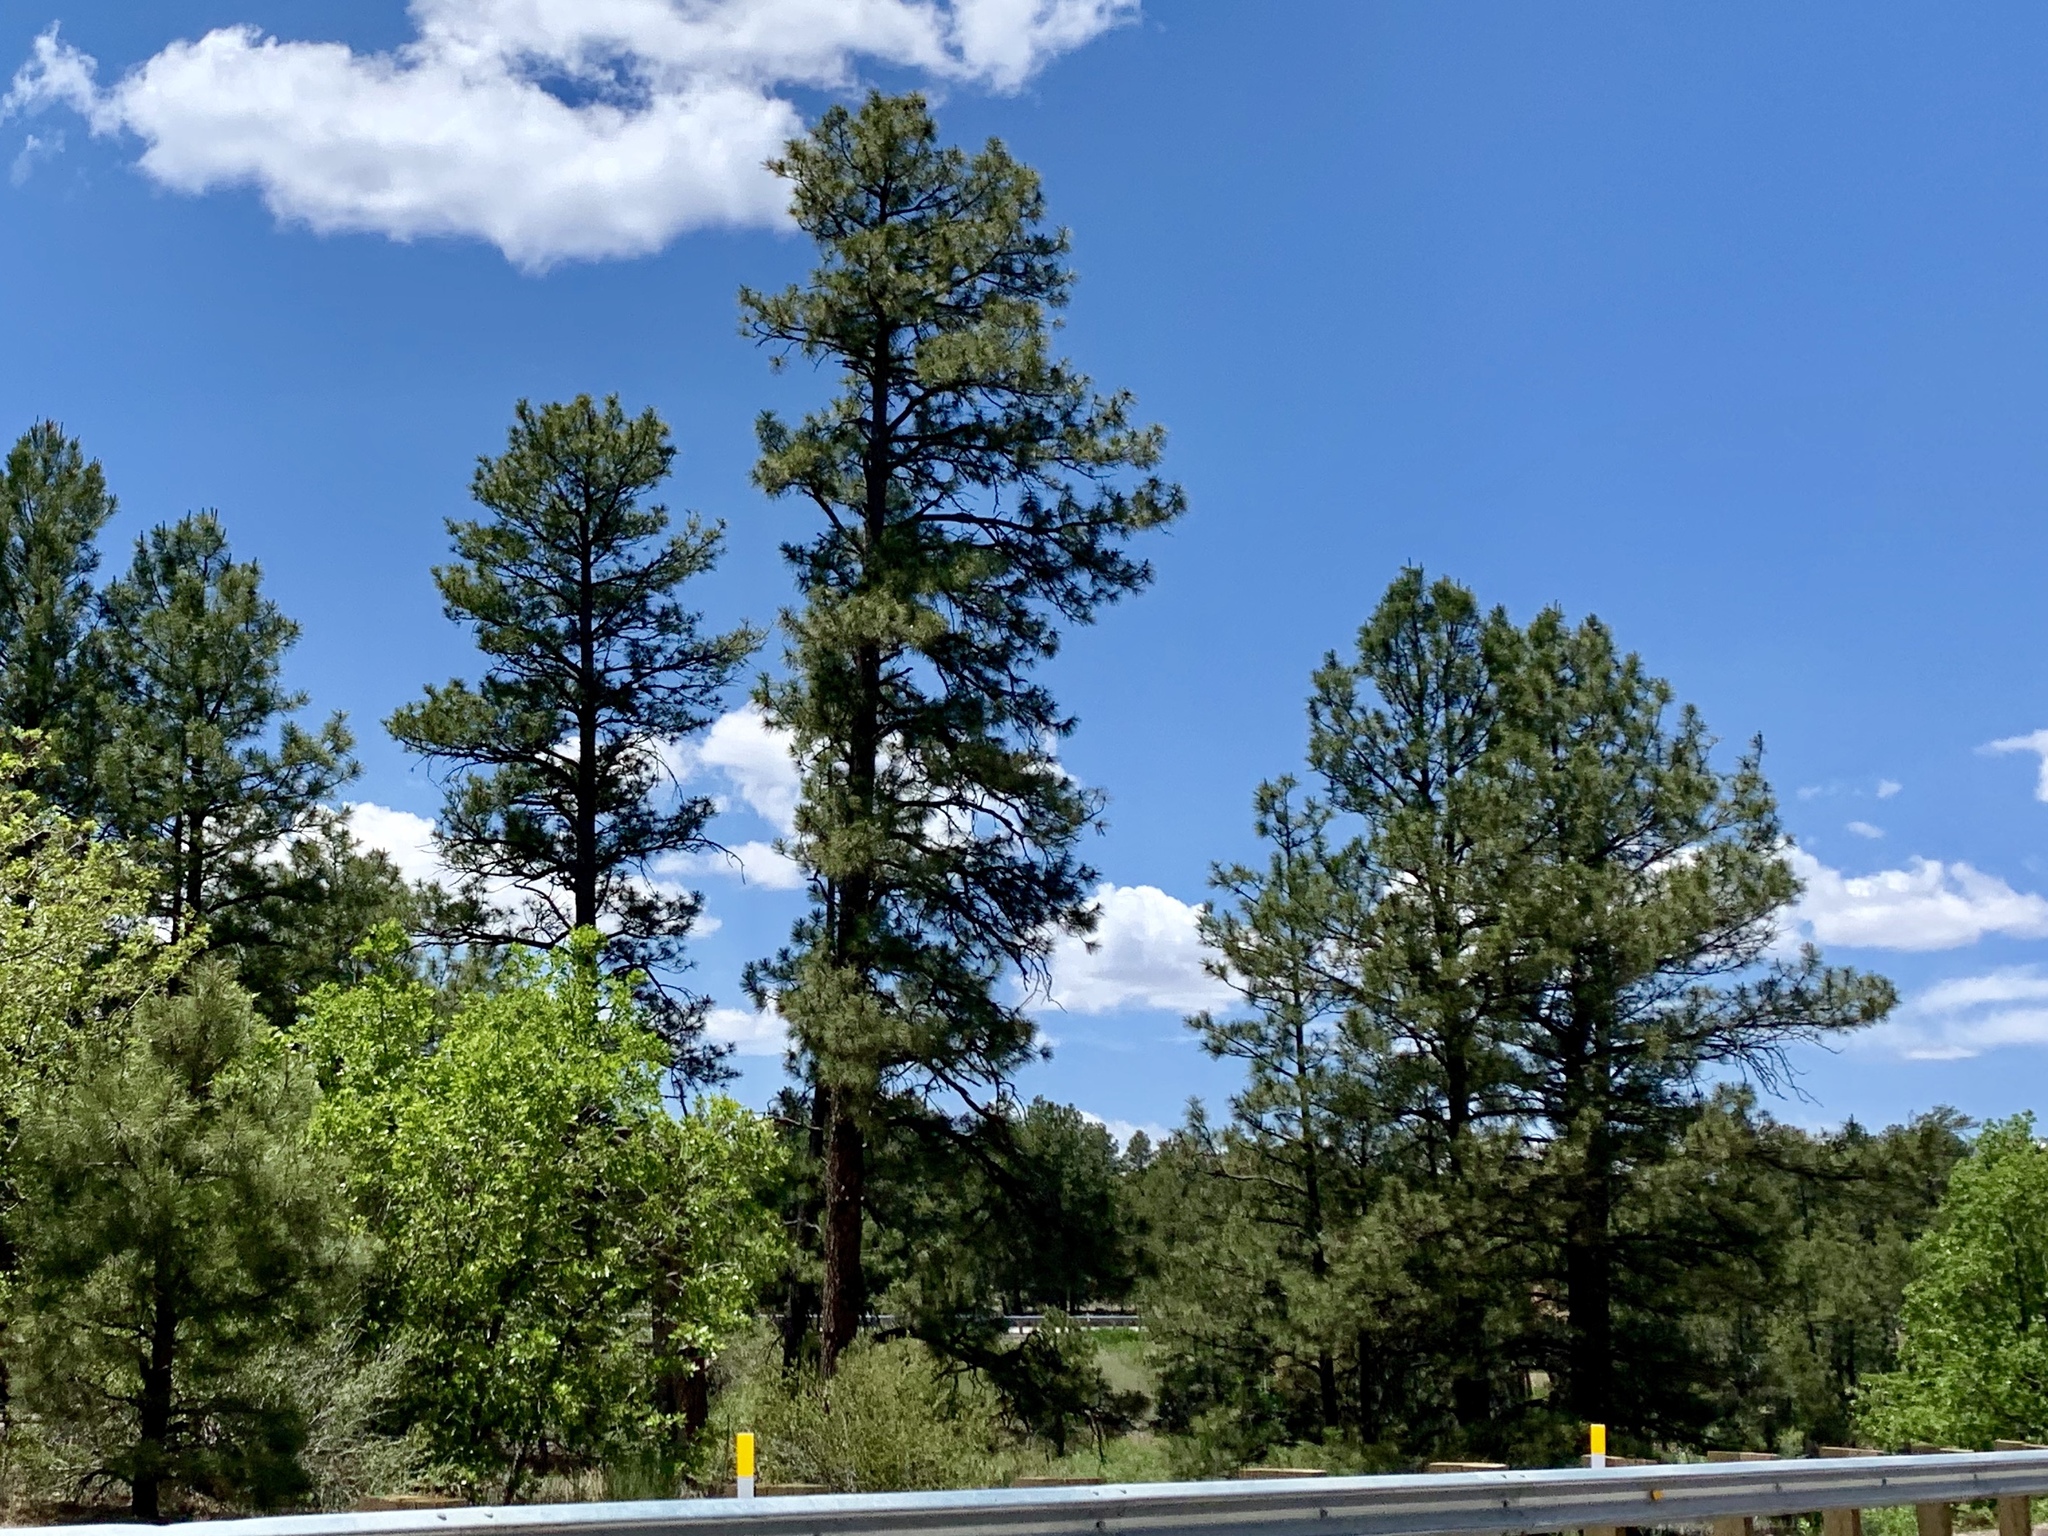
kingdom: Plantae
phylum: Tracheophyta
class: Pinopsida
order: Pinales
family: Pinaceae
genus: Pinus
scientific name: Pinus ponderosa
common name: Western yellow-pine
